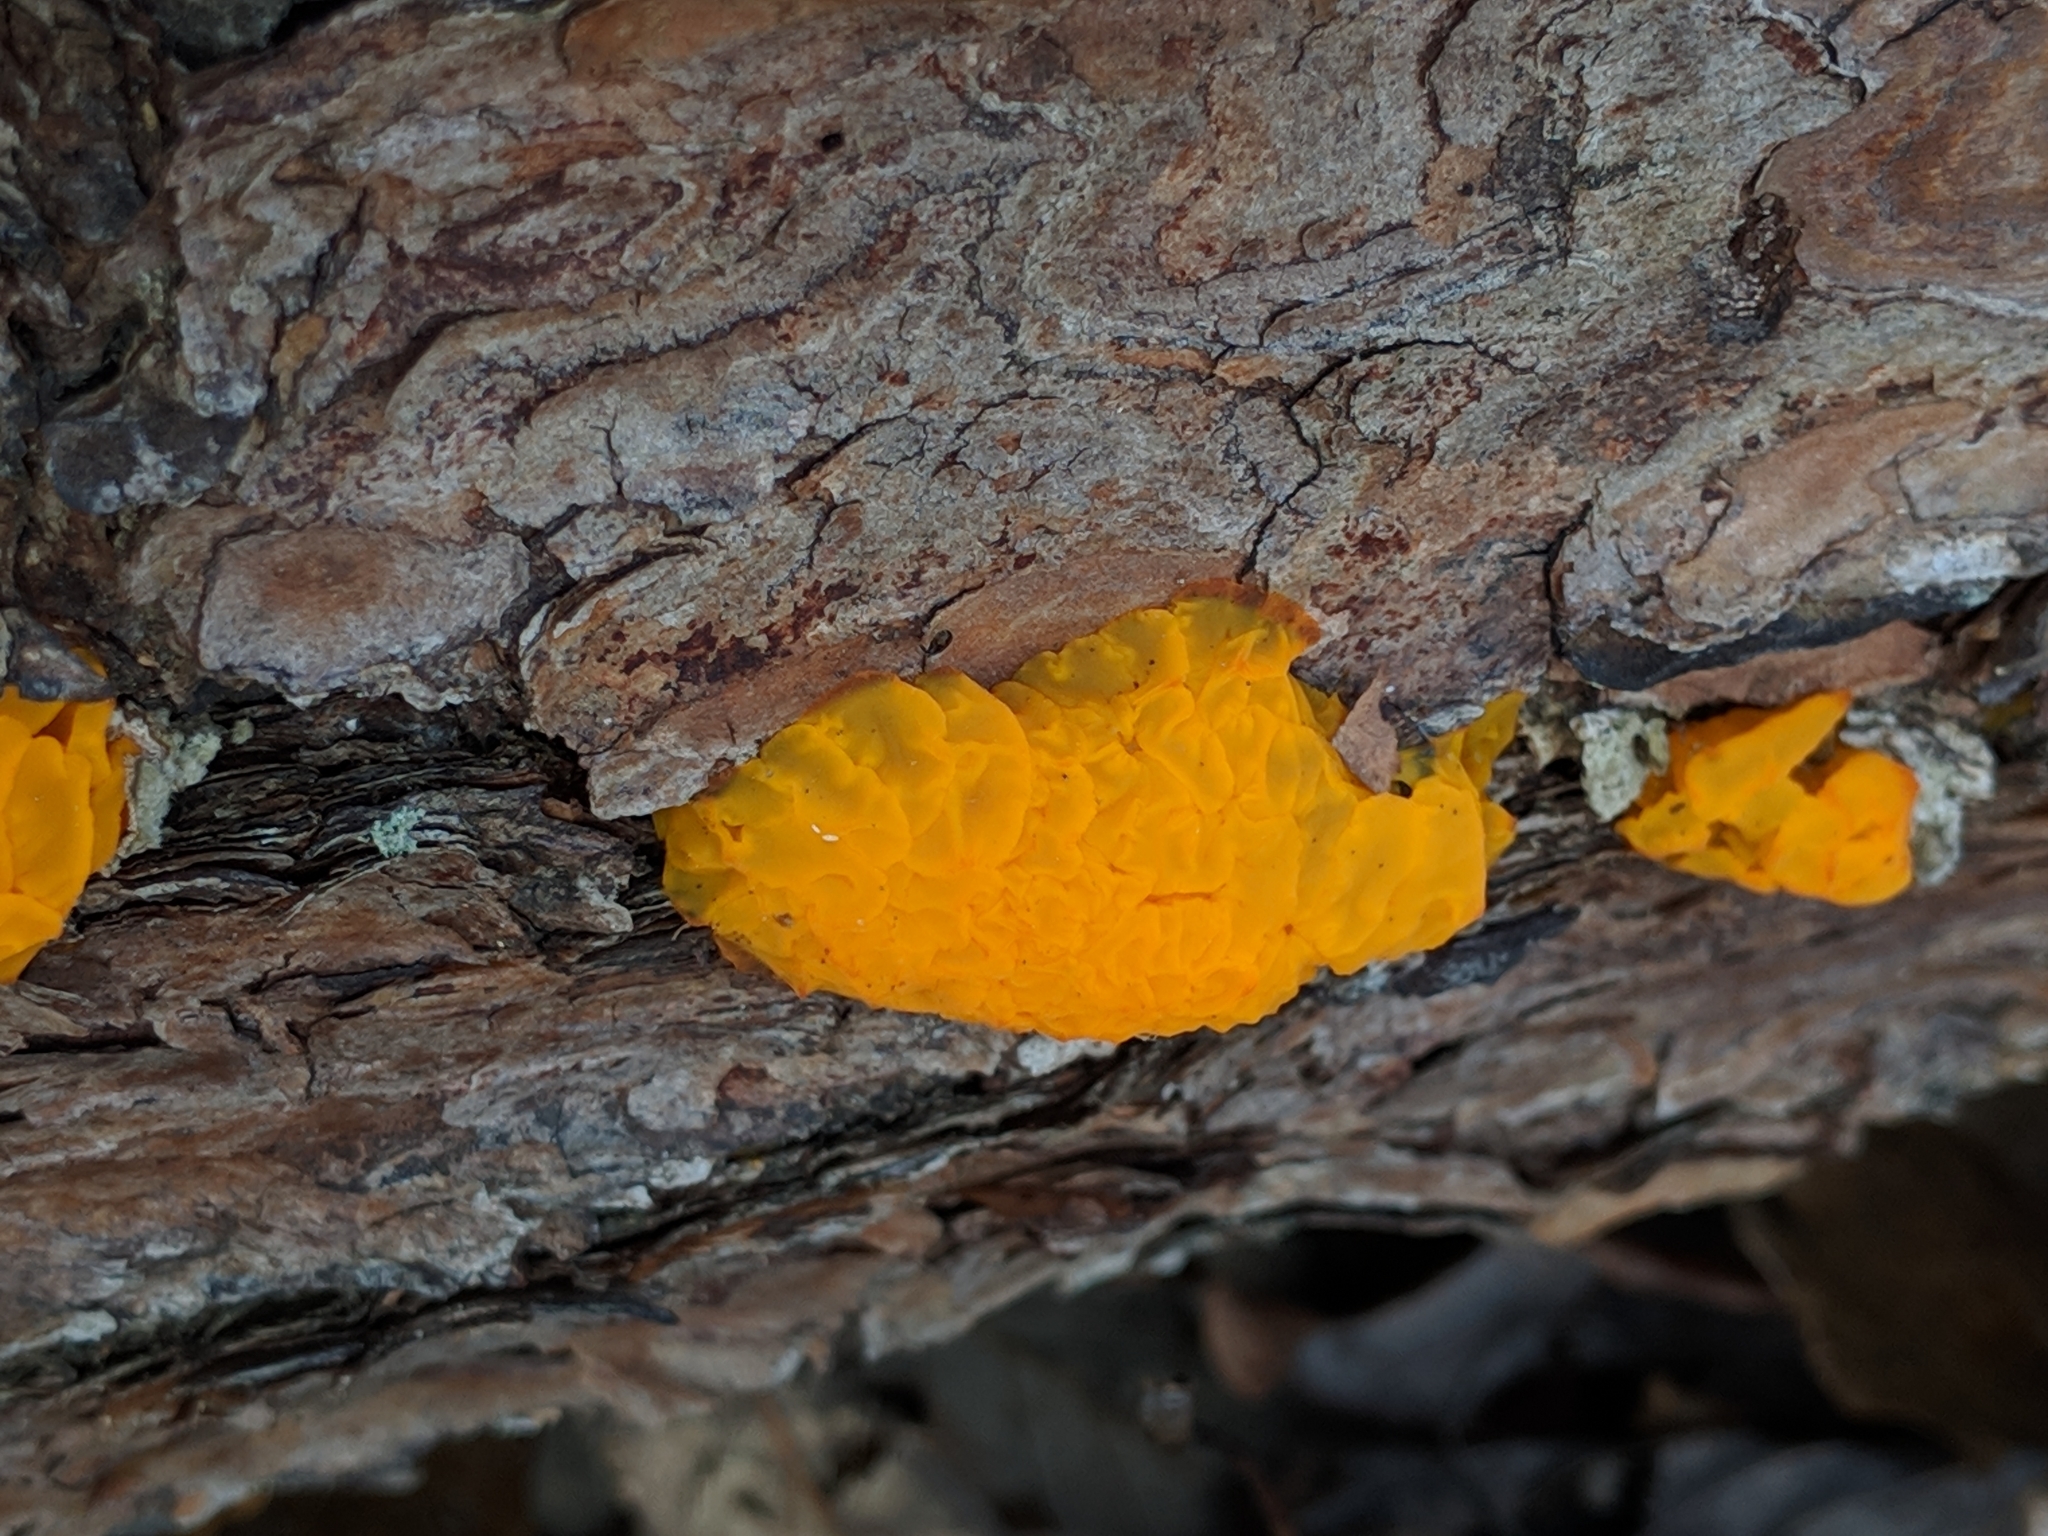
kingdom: Fungi
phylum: Basidiomycota
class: Tremellomycetes
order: Tremellales
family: Tremellaceae
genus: Tremella
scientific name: Tremella mesenterica
